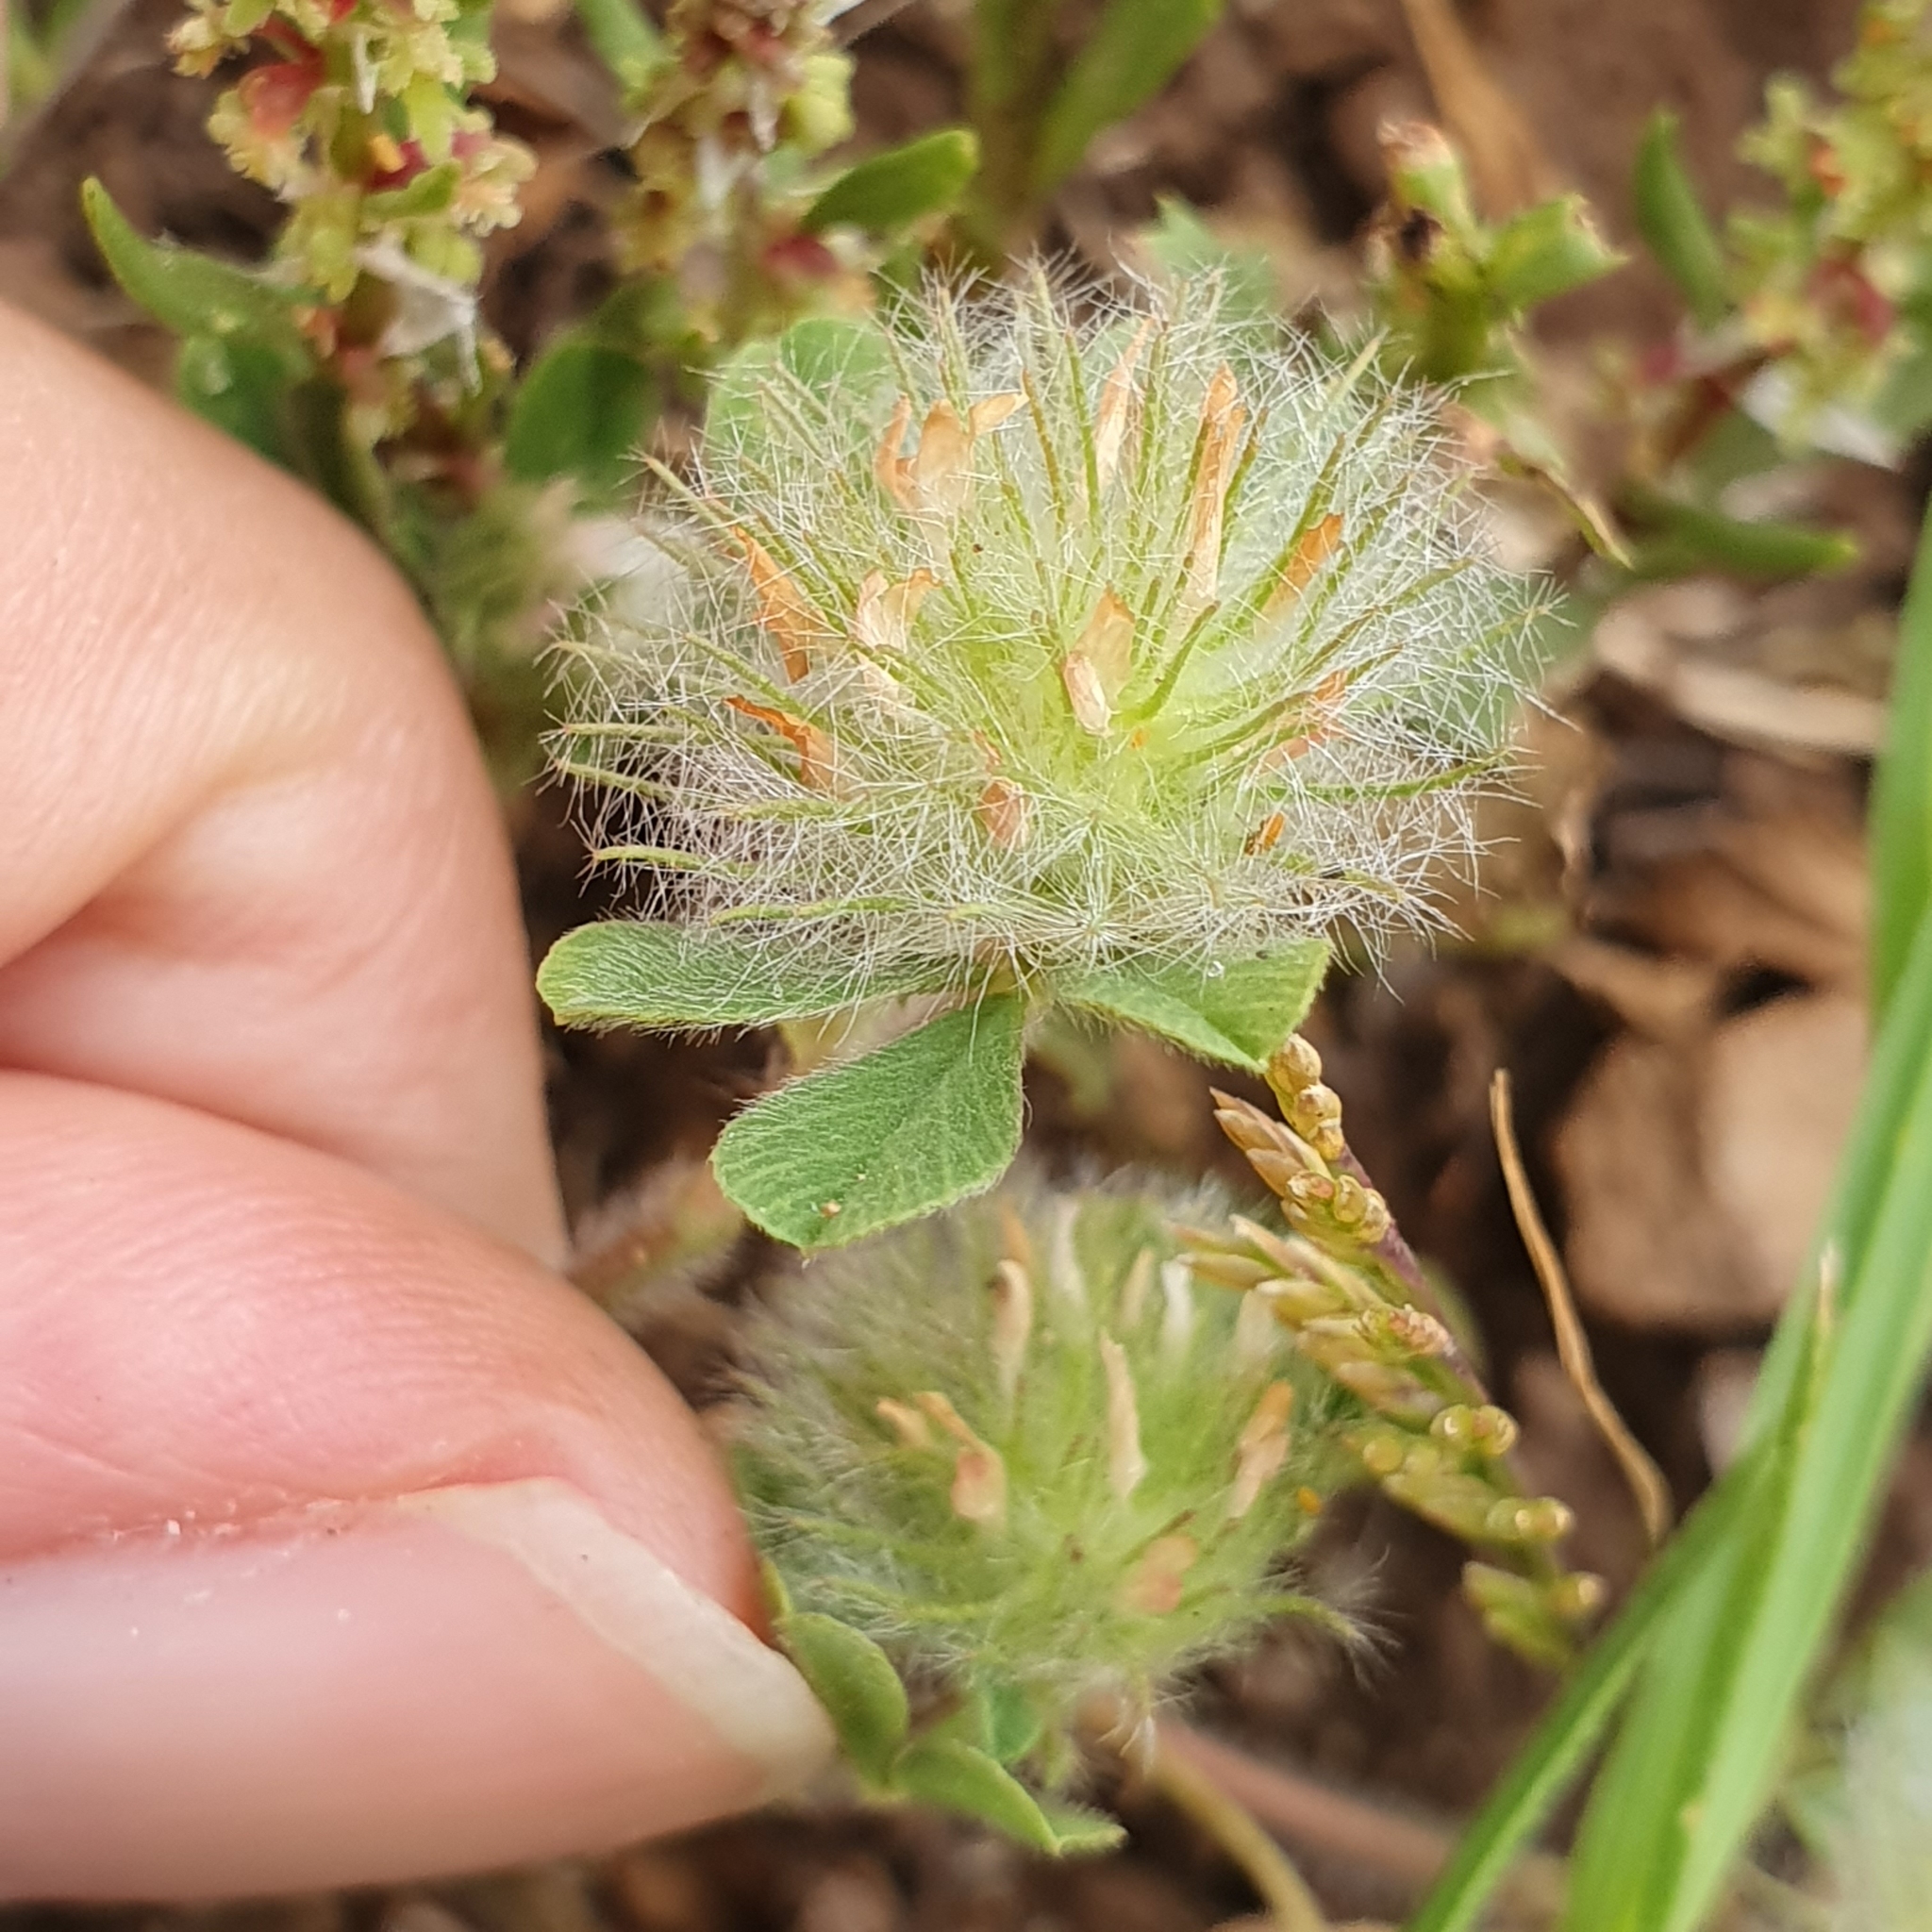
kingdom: Plantae
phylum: Tracheophyta
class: Magnoliopsida
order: Fabales
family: Fabaceae
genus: Trifolium
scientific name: Trifolium cherleri
